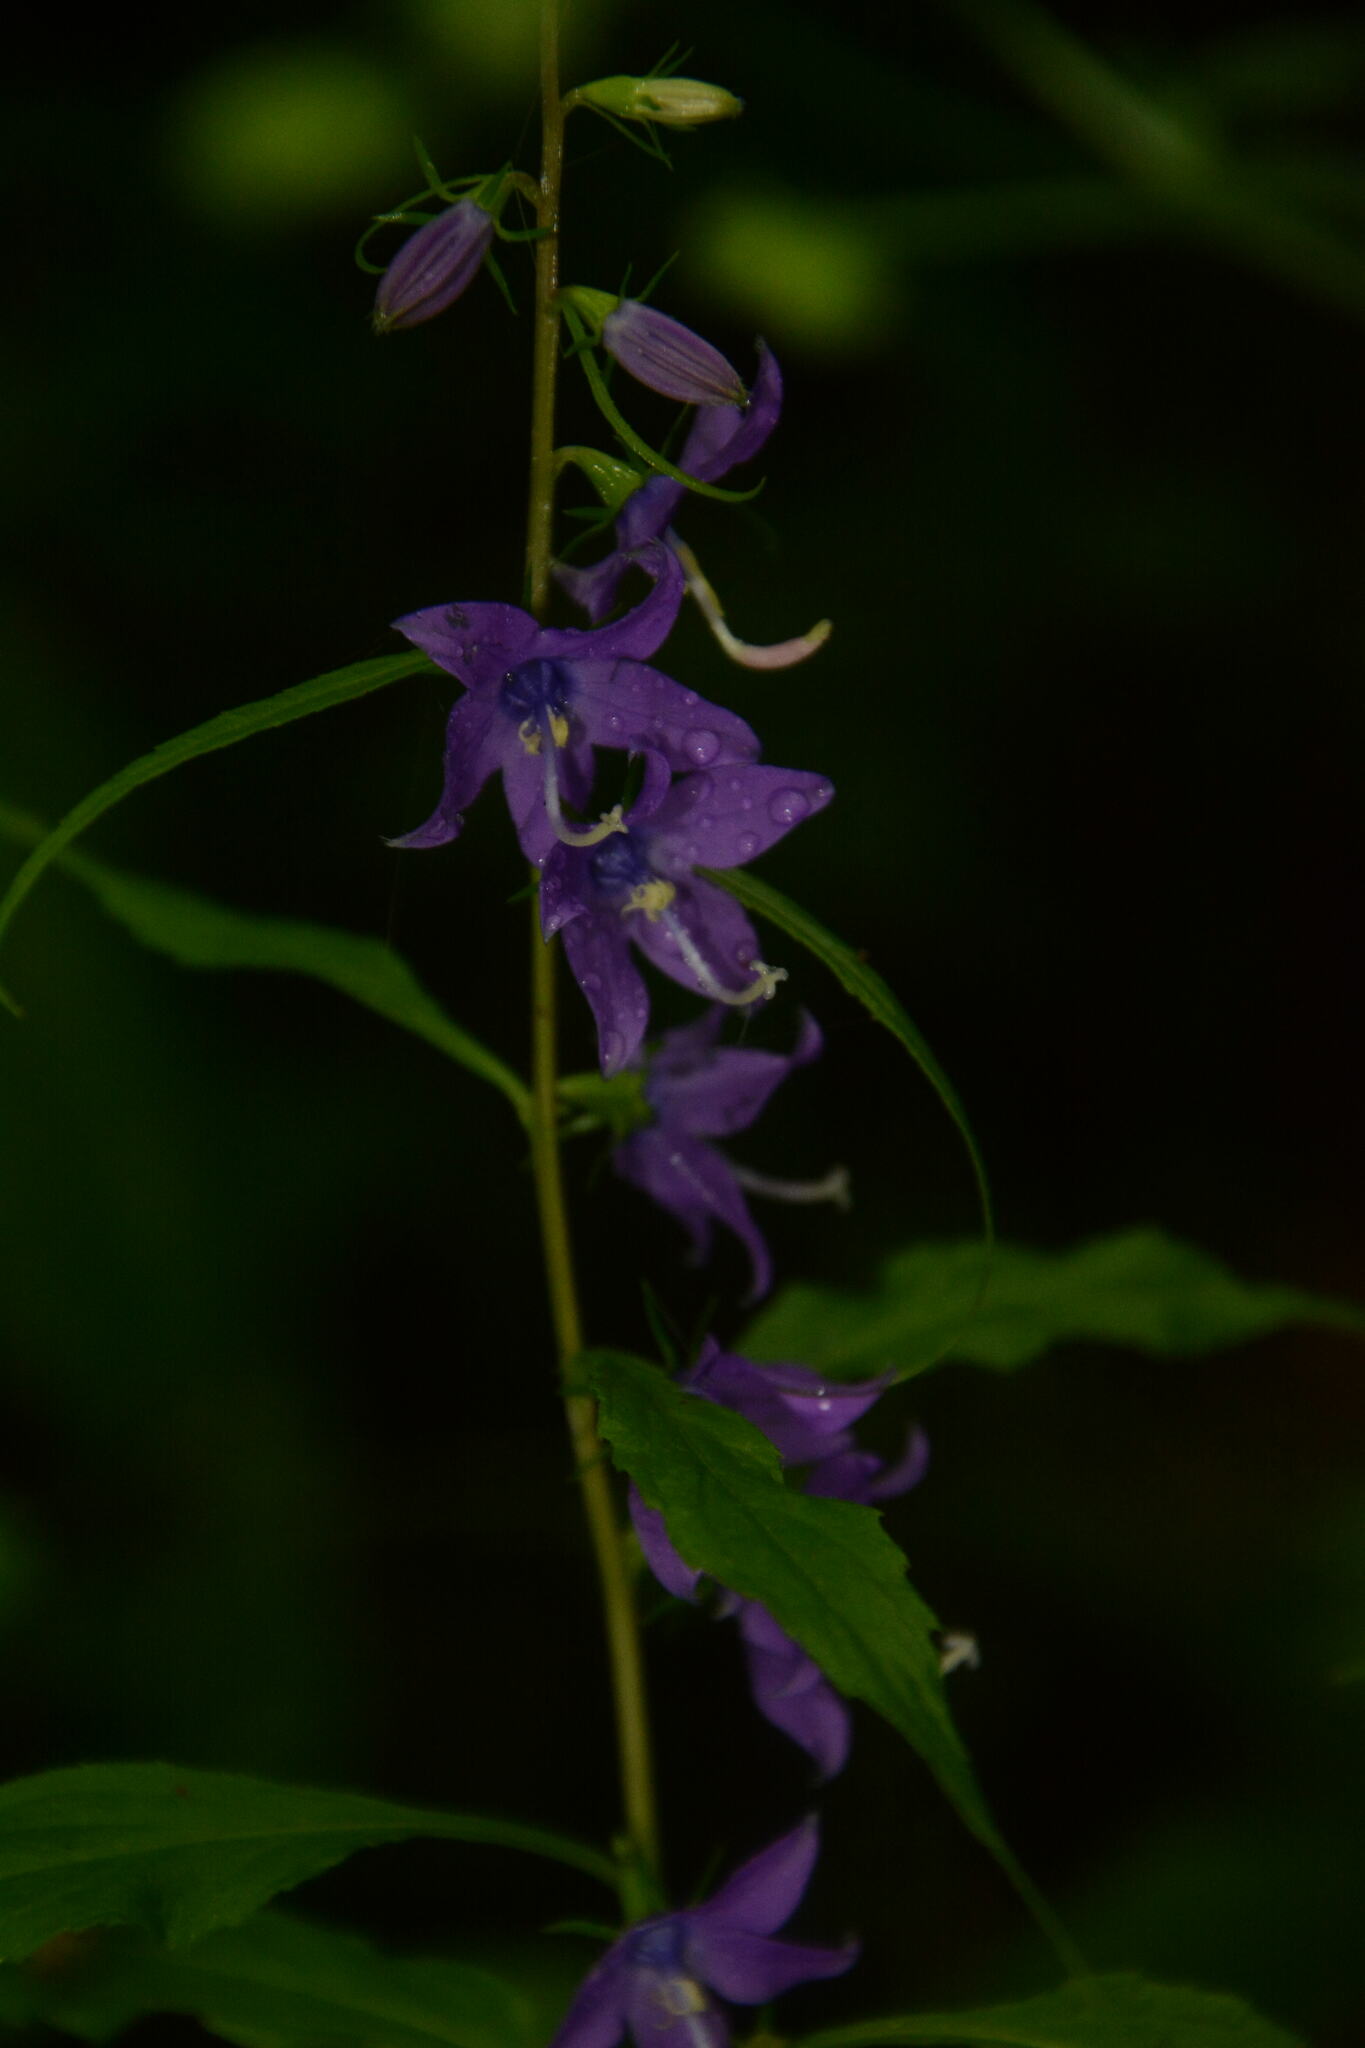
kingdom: Plantae
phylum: Tracheophyta
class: Magnoliopsida
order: Asterales
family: Campanulaceae
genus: Campanulastrum
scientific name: Campanulastrum americanum
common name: American bellflower
